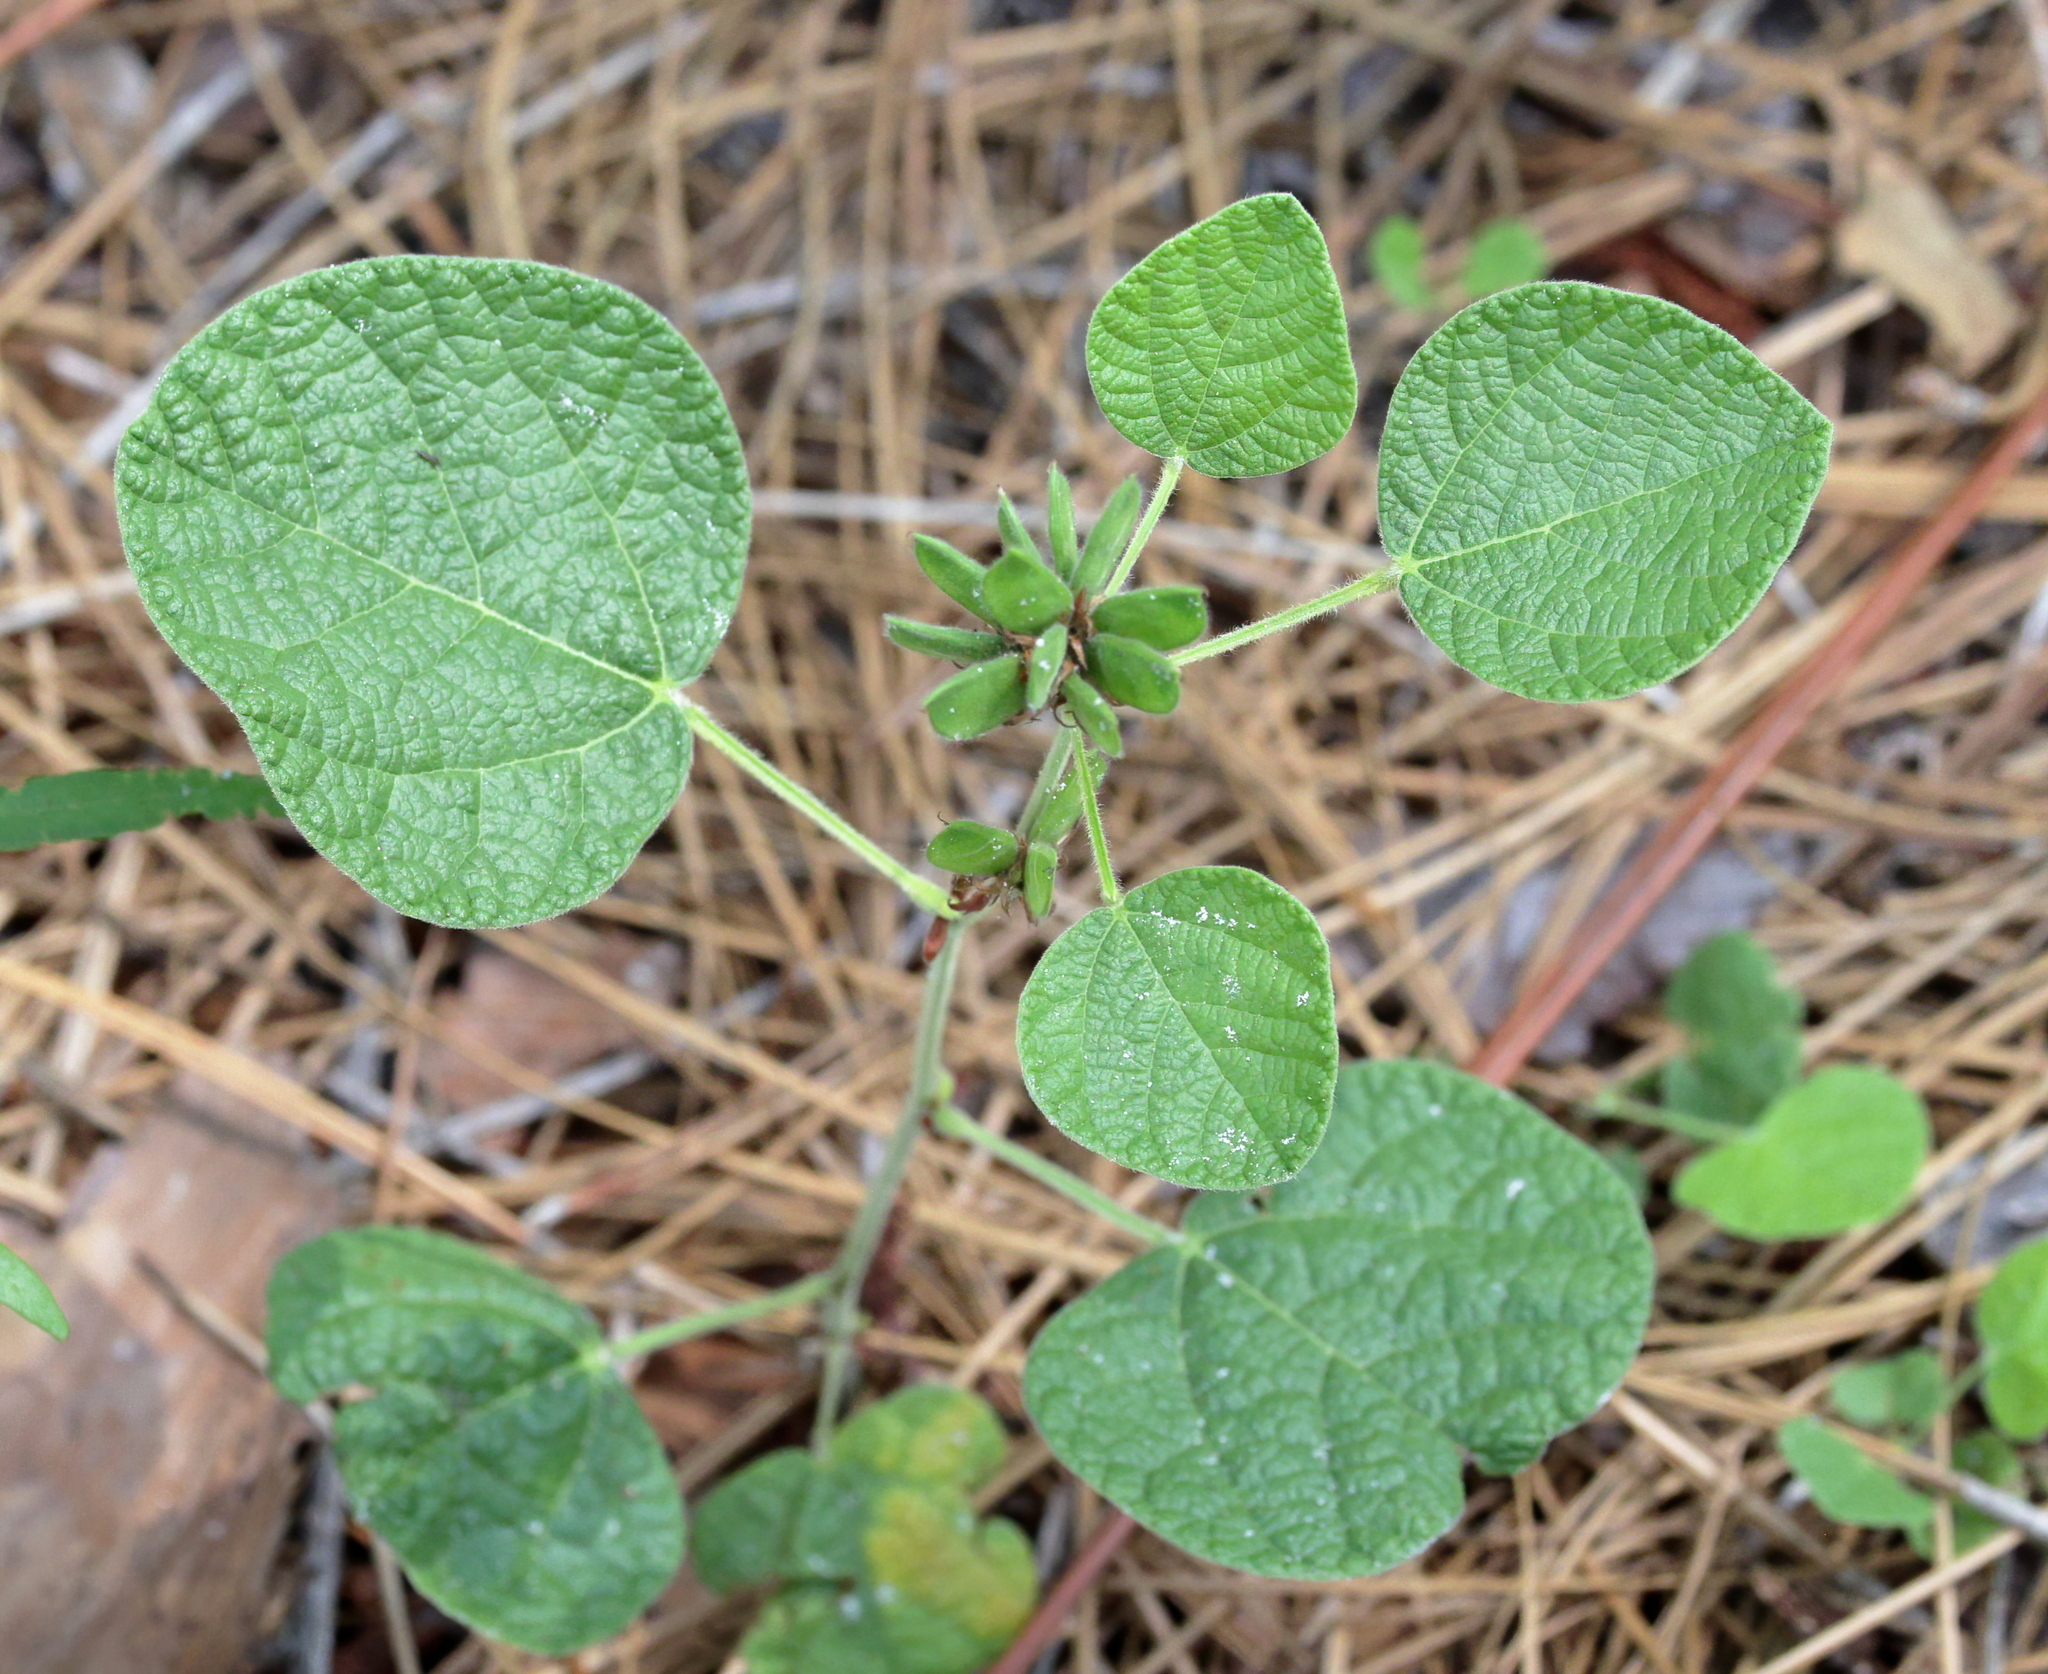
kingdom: Plantae
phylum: Tracheophyta
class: Magnoliopsida
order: Fabales
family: Fabaceae
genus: Rhynchosia
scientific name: Rhynchosia reniformis
